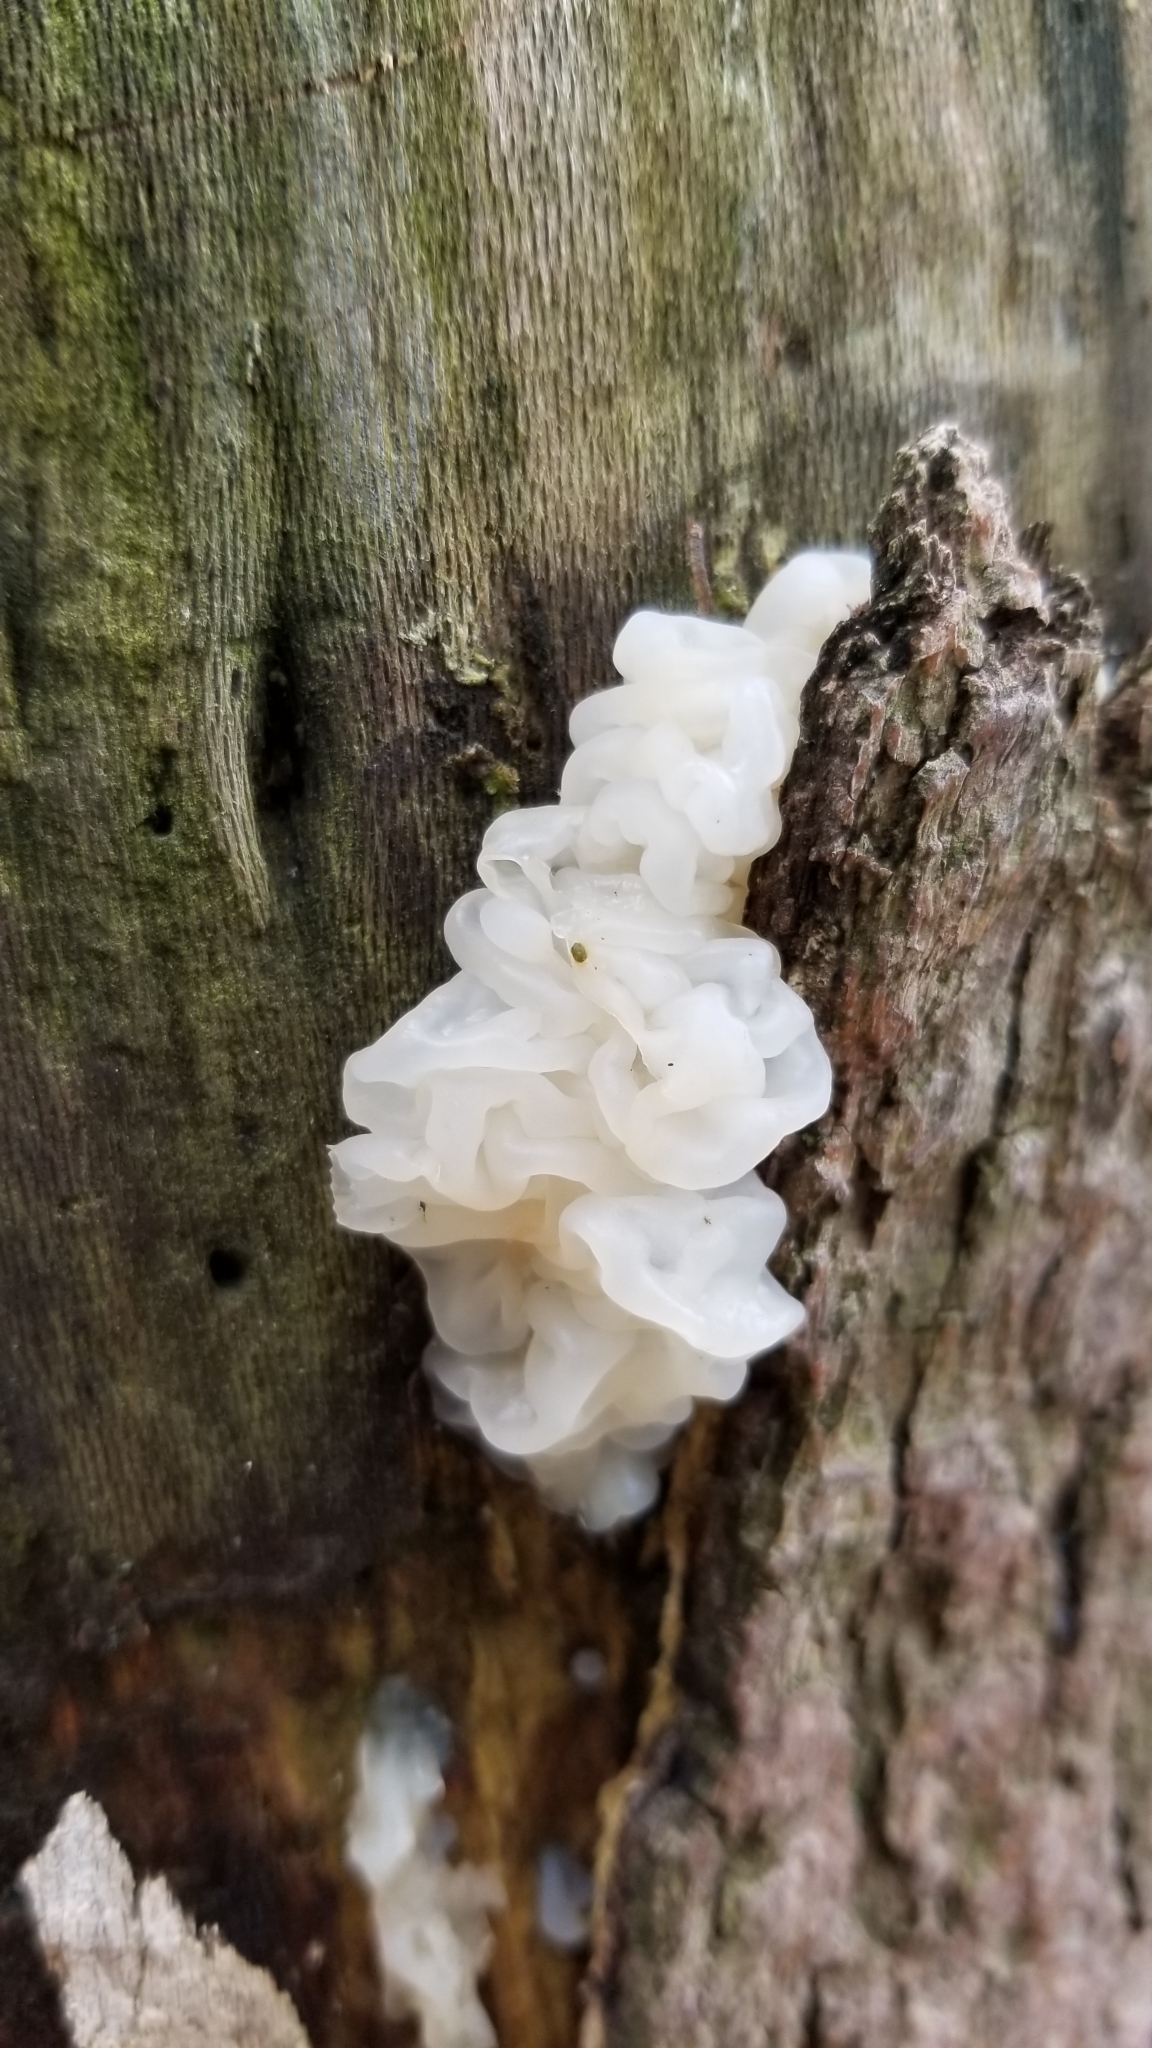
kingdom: Fungi
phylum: Basidiomycota
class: Agaricomycetes
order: Auriculariales
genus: Ductifera
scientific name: Ductifera pululahuana
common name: White jelly fungus
